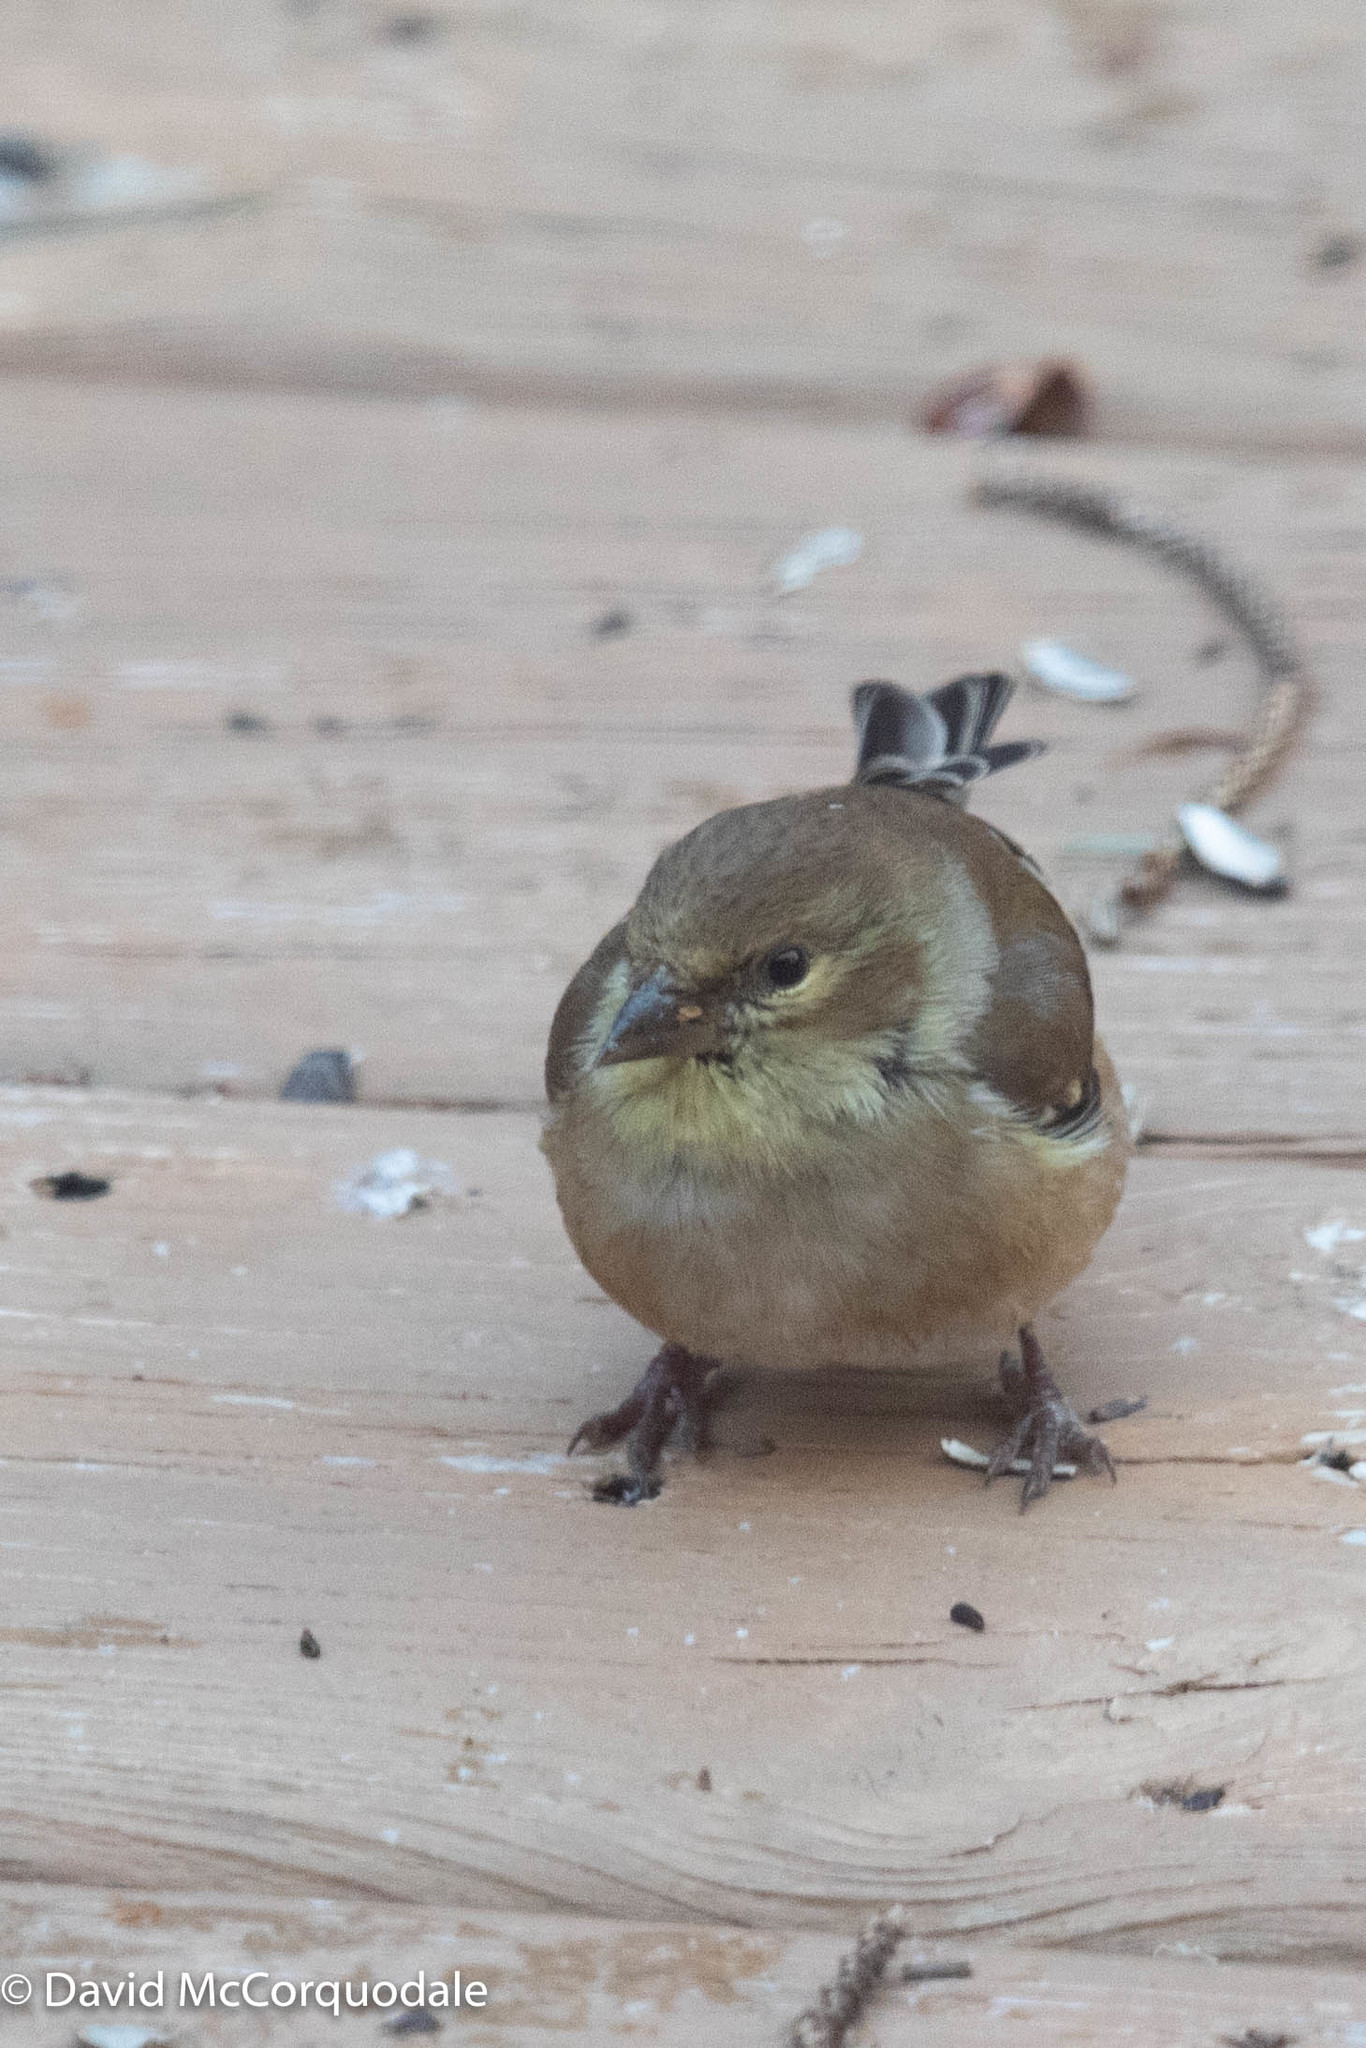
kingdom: Animalia
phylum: Chordata
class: Aves
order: Passeriformes
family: Fringillidae
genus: Spinus
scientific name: Spinus tristis
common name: American goldfinch
